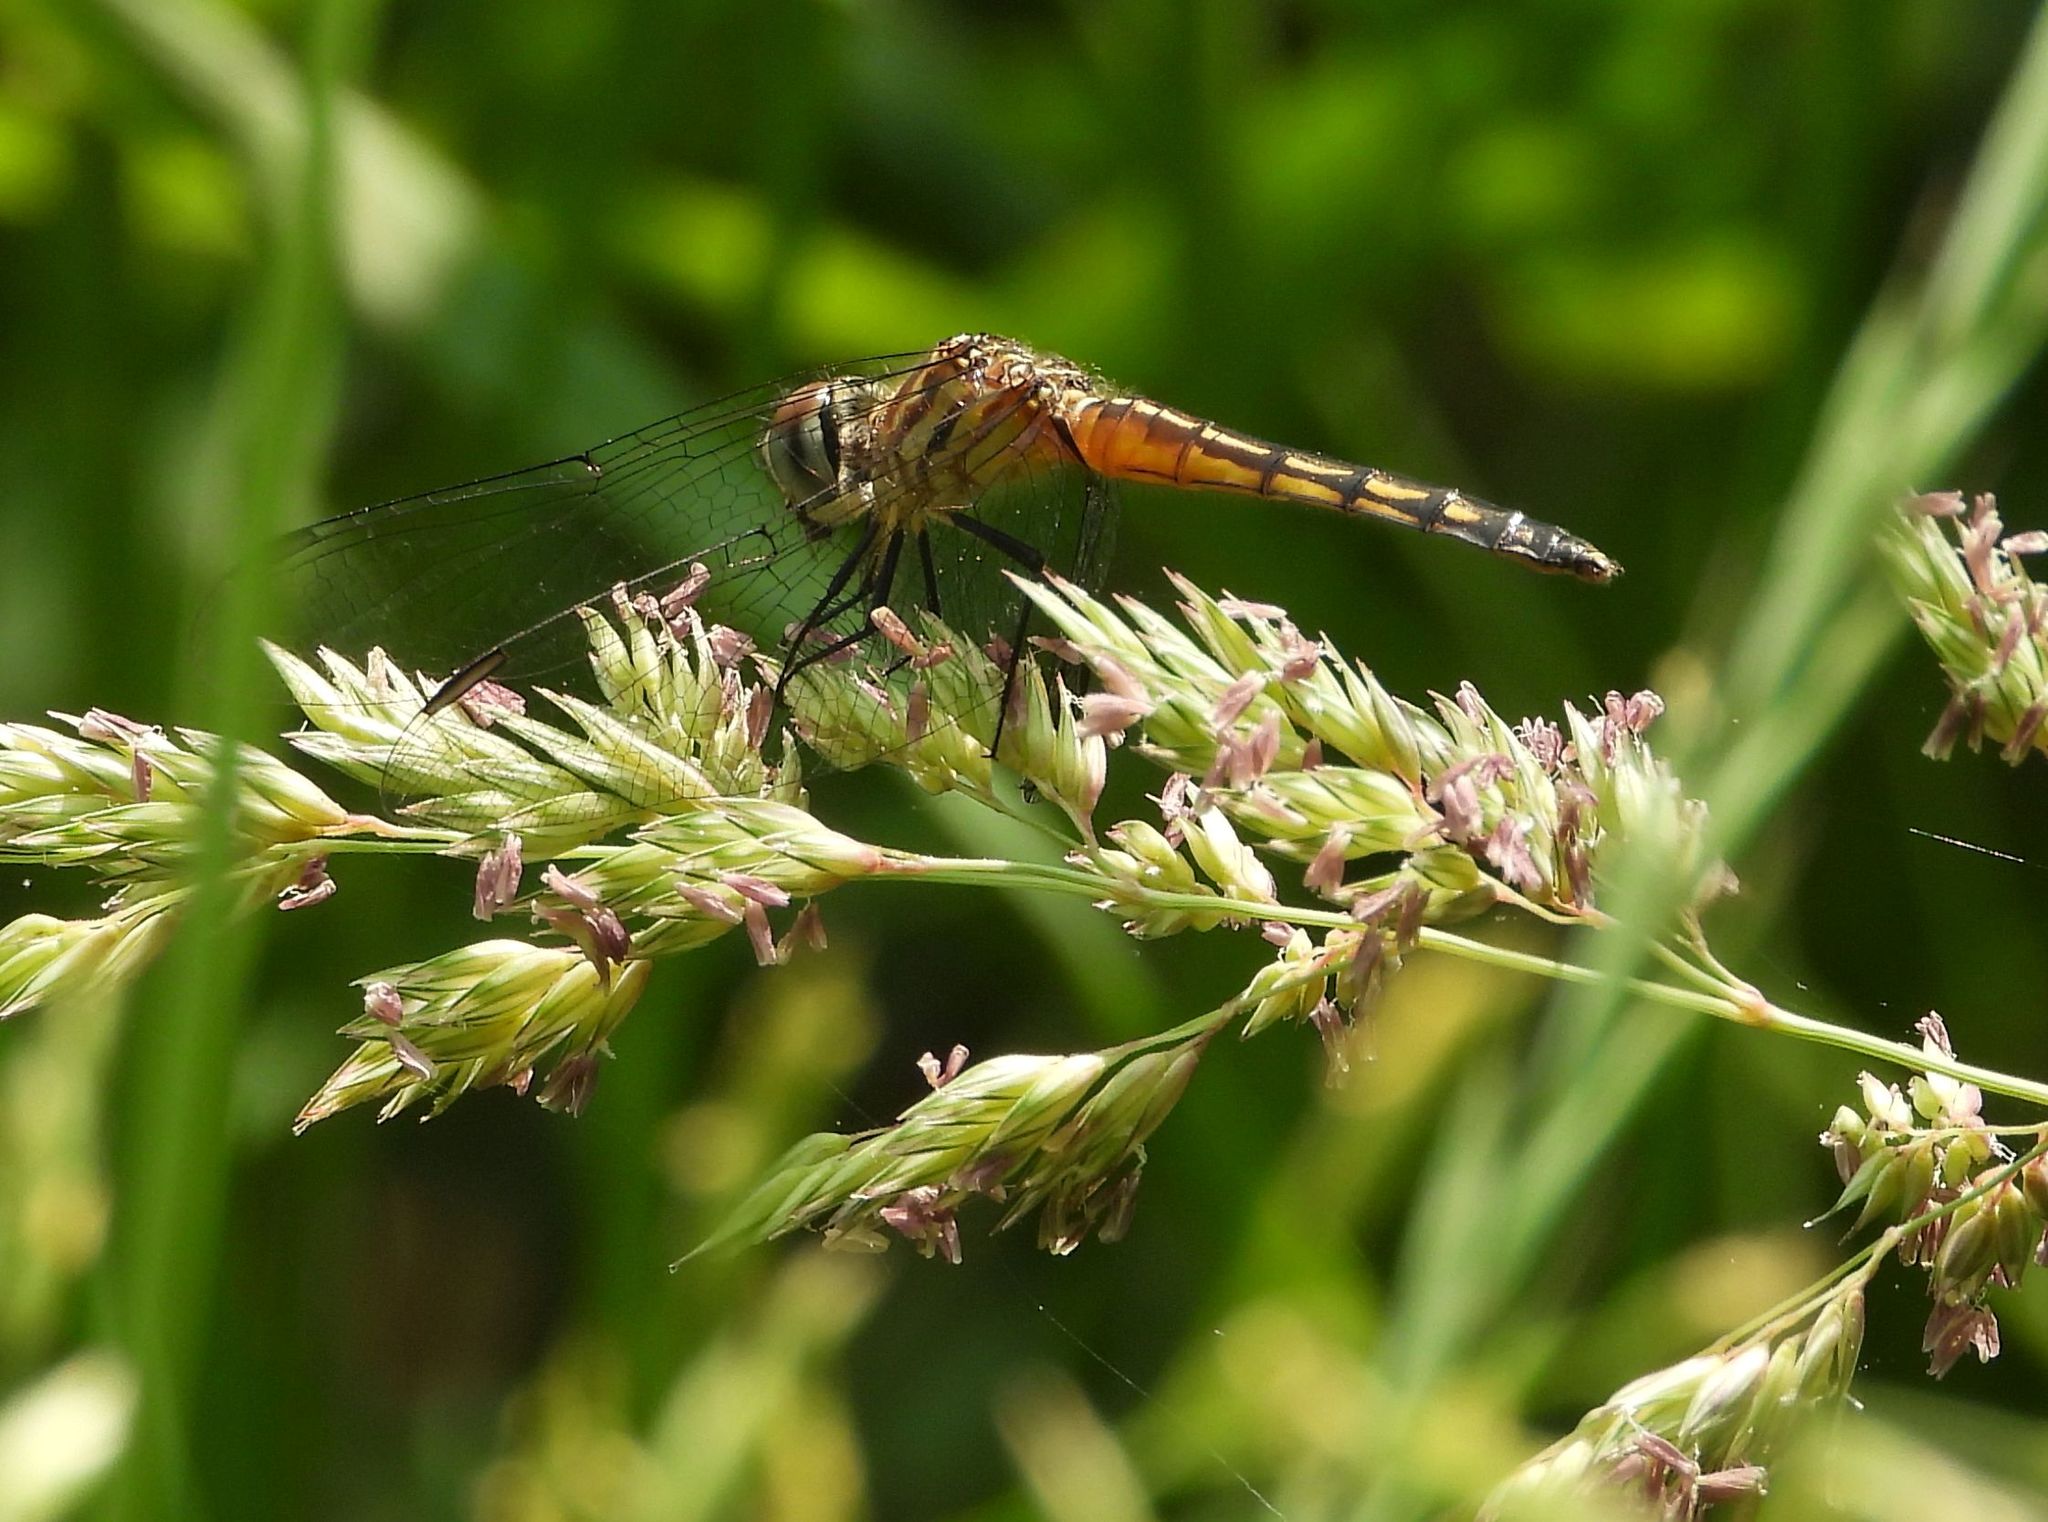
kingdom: Animalia
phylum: Arthropoda
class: Insecta
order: Odonata
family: Libellulidae
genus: Pachydiplax
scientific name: Pachydiplax longipennis
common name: Blue dasher
